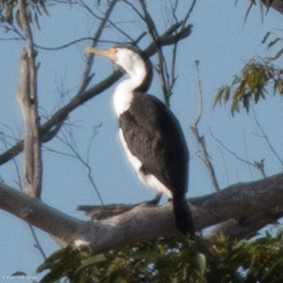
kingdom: Animalia
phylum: Chordata
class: Aves
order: Suliformes
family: Phalacrocoracidae
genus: Phalacrocorax
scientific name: Phalacrocorax varius
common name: Pied cormorant
